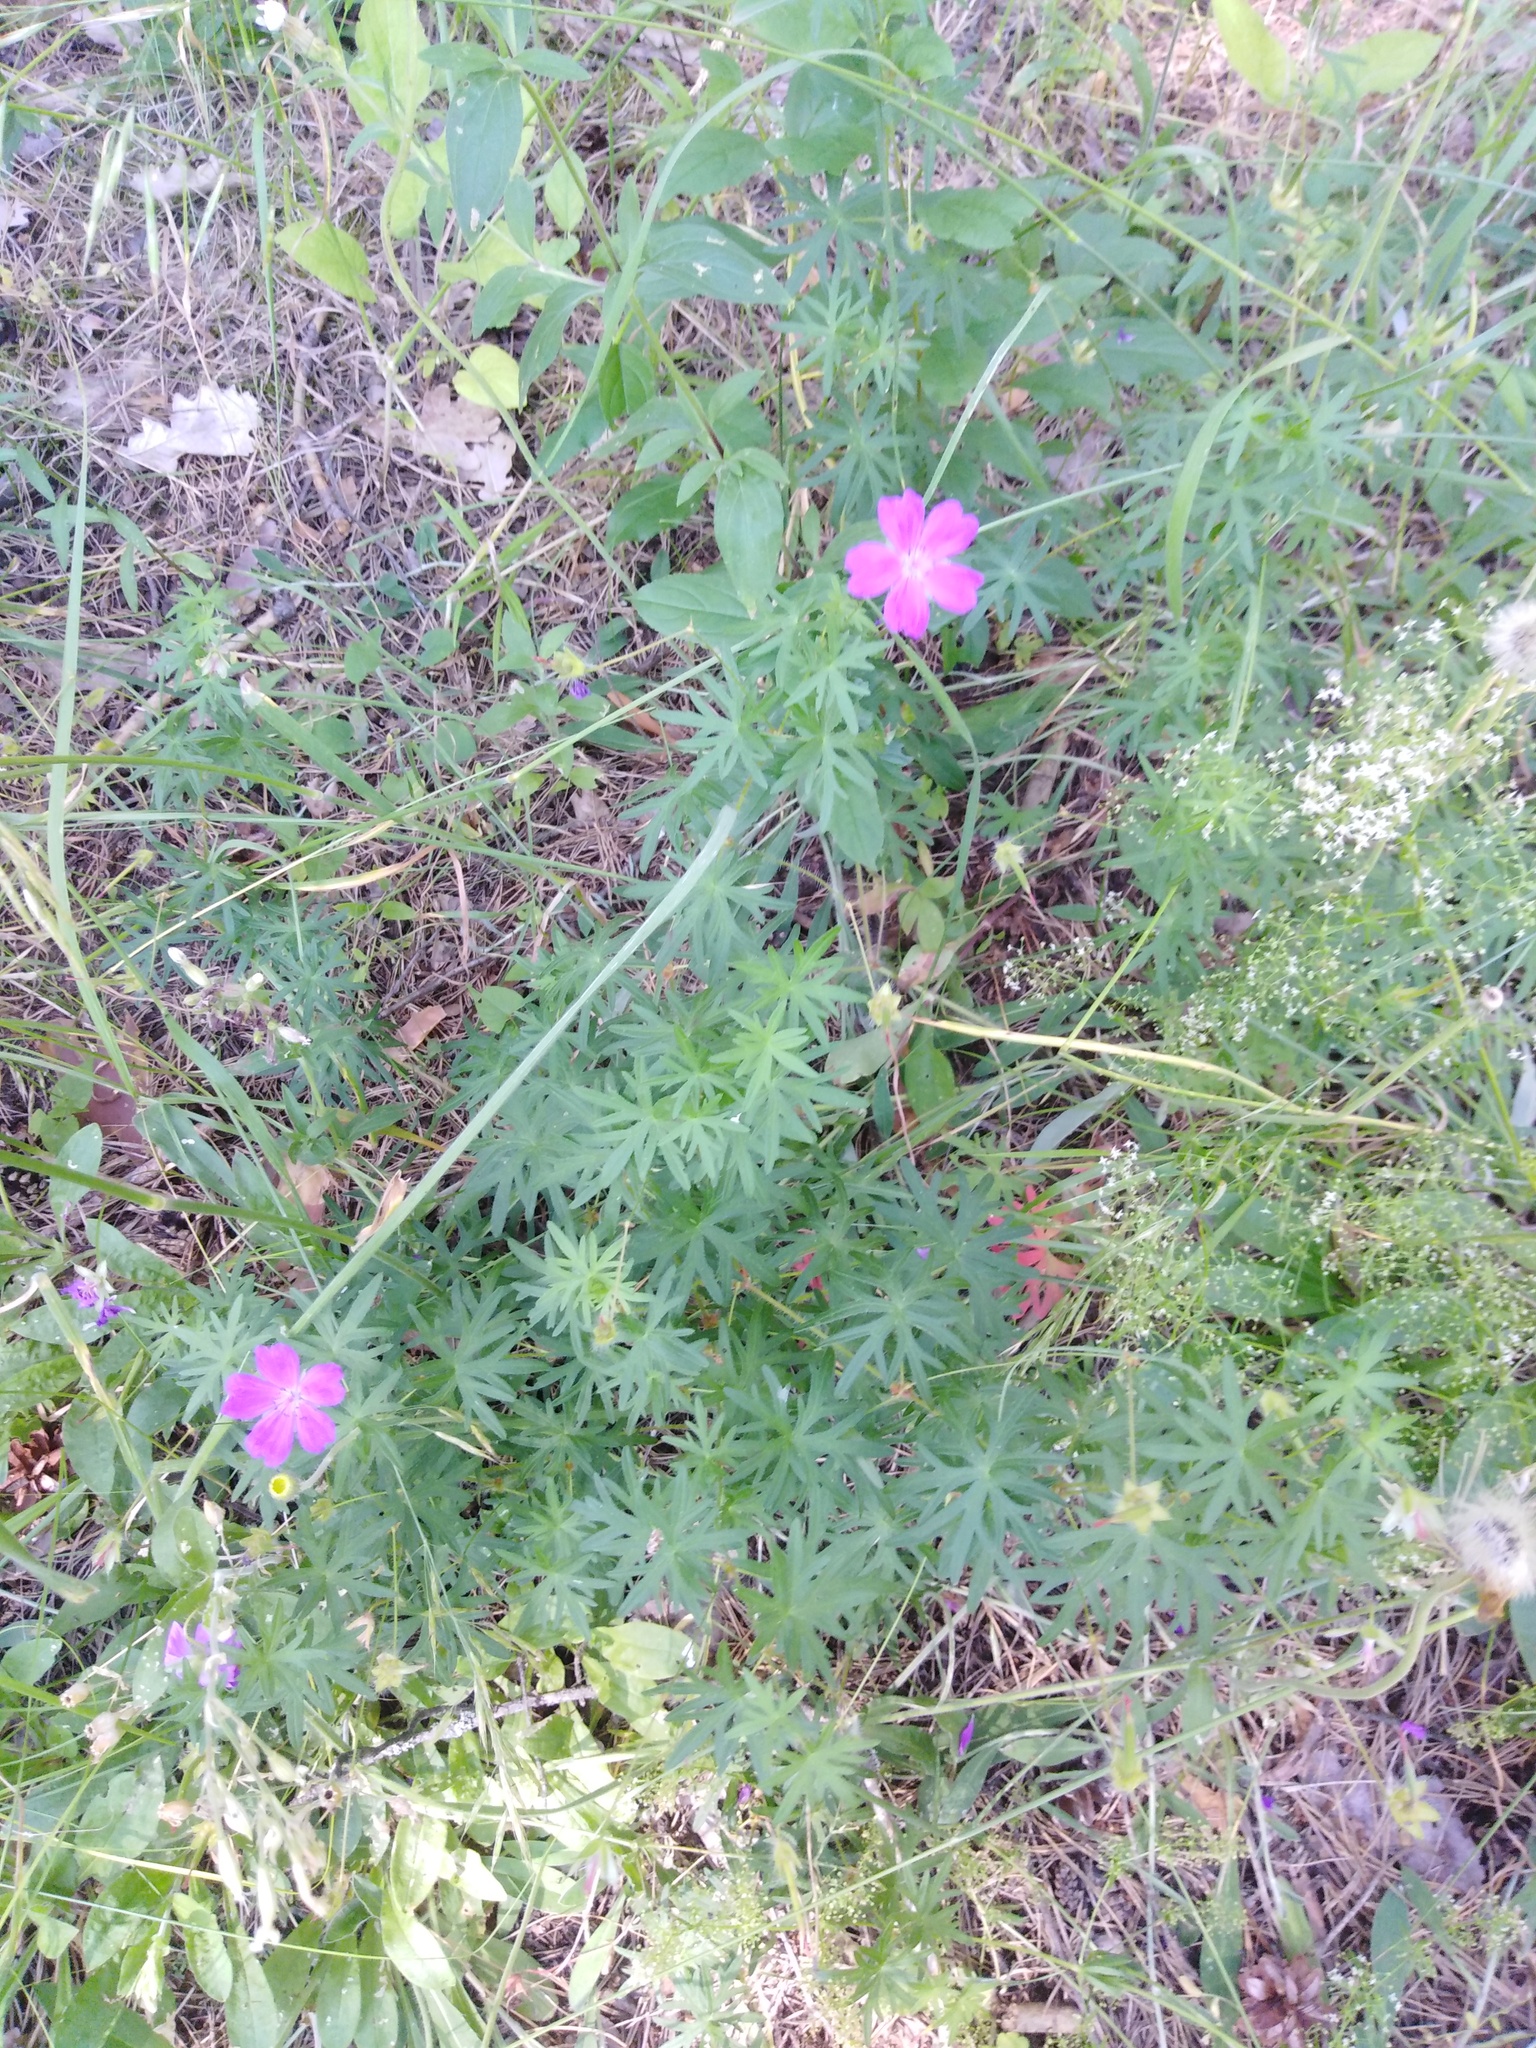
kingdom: Plantae
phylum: Tracheophyta
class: Magnoliopsida
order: Geraniales
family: Geraniaceae
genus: Geranium
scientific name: Geranium sanguineum
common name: Bloody crane's-bill
